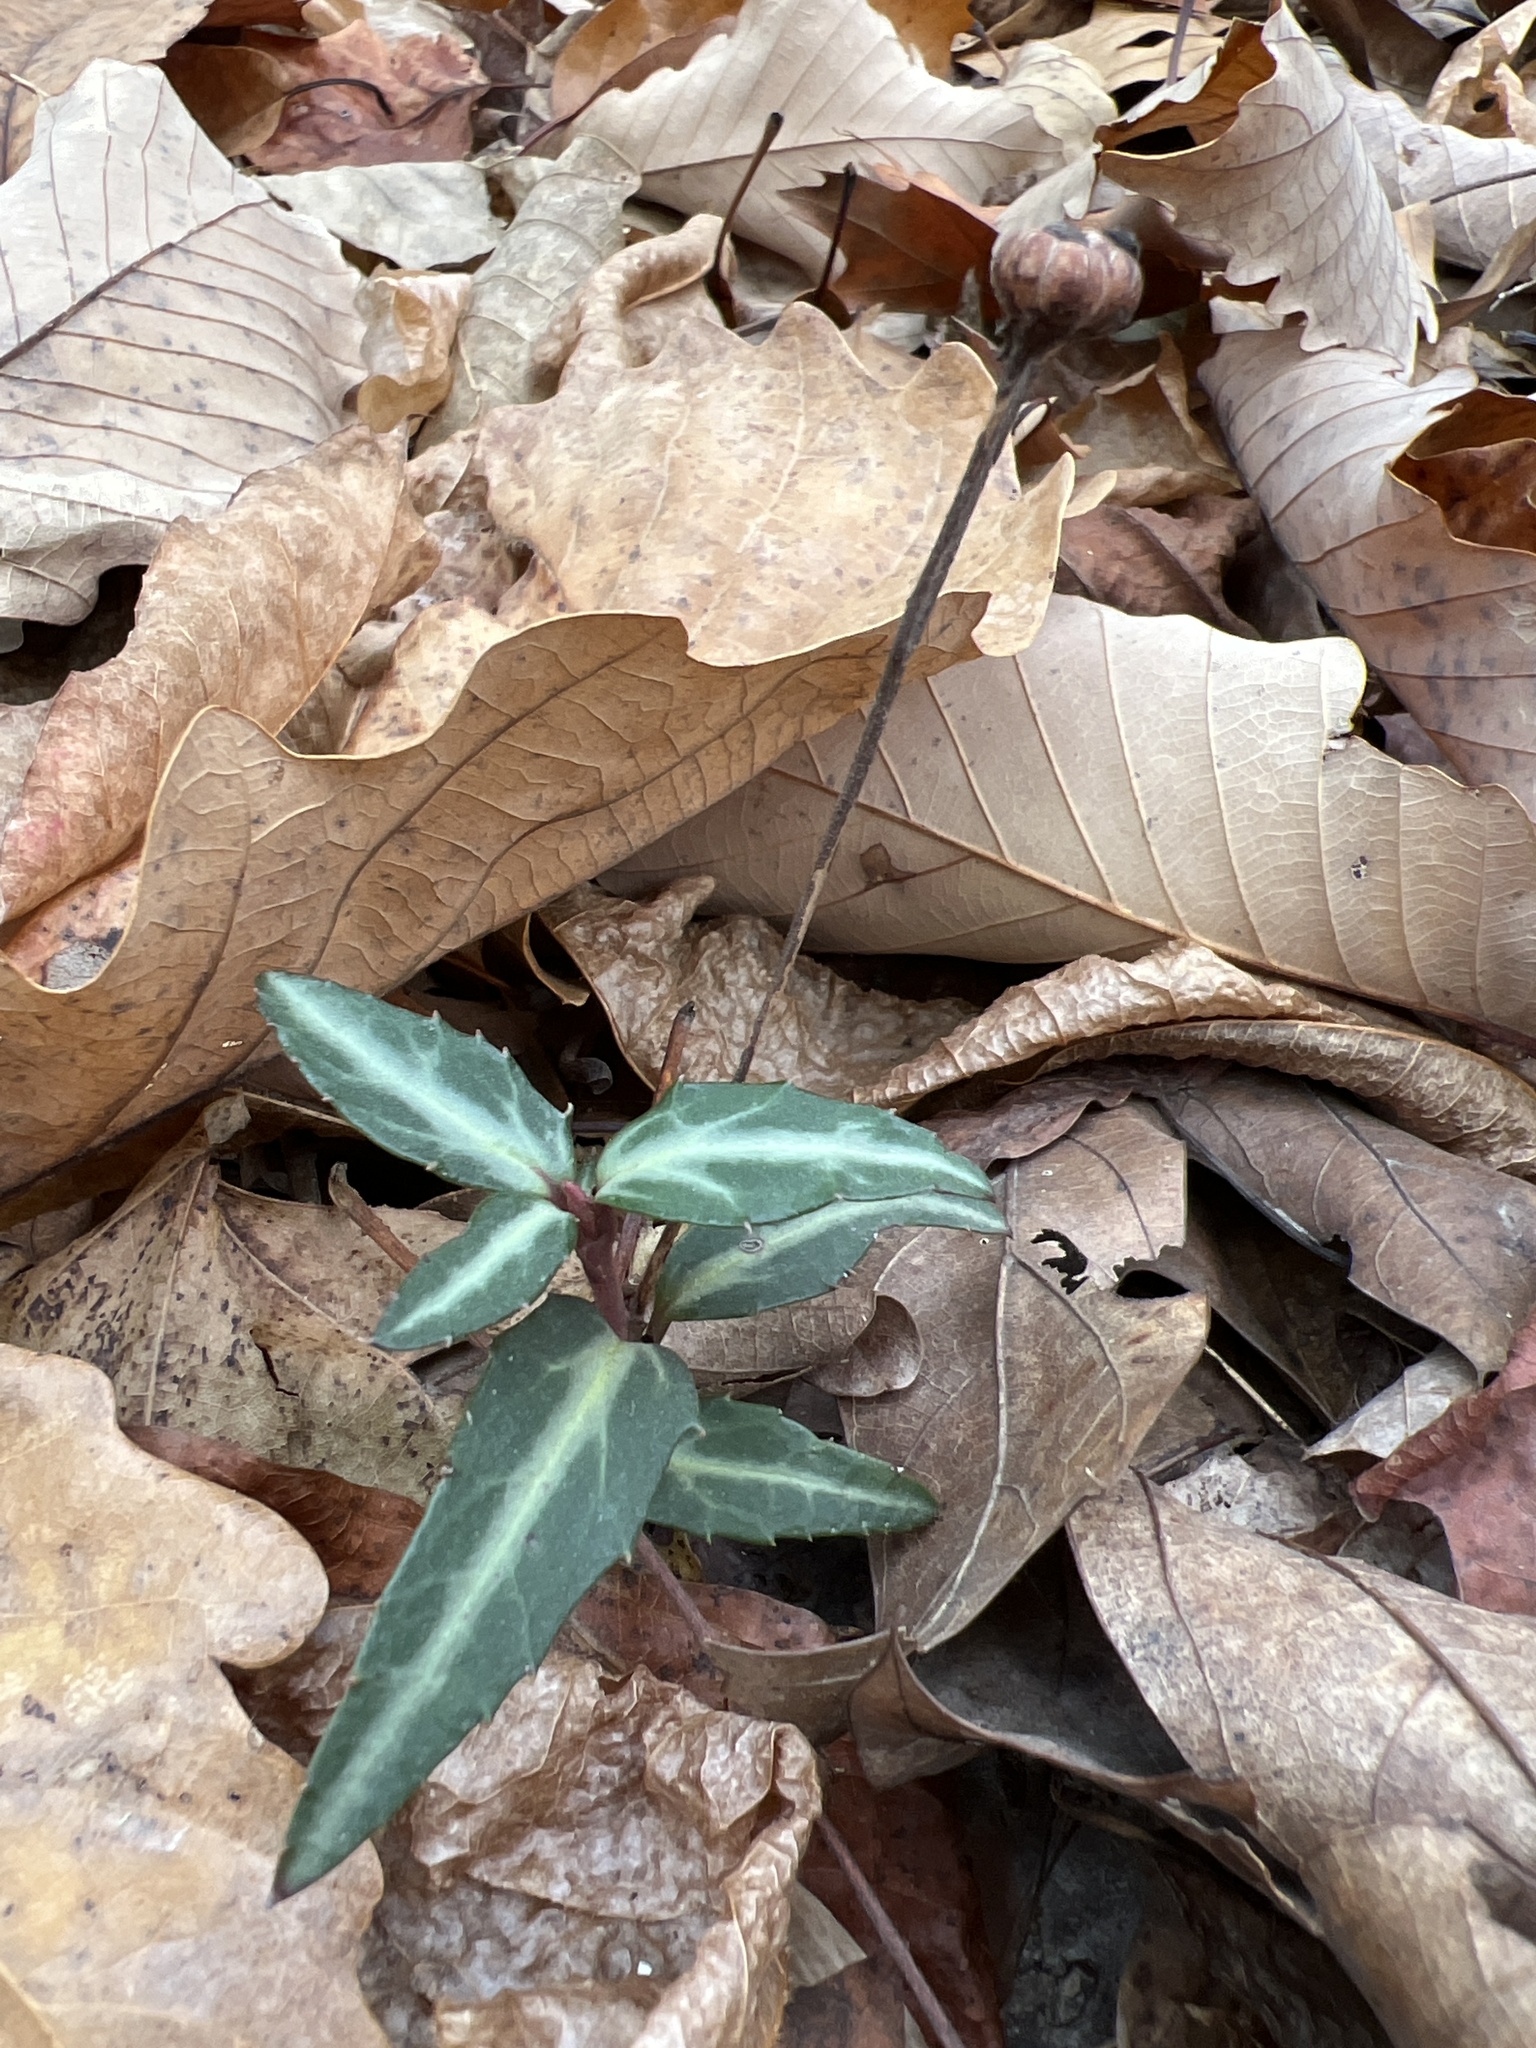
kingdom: Plantae
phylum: Tracheophyta
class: Magnoliopsida
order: Ericales
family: Ericaceae
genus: Chimaphila
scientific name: Chimaphila maculata
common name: Spotted pipsissewa
